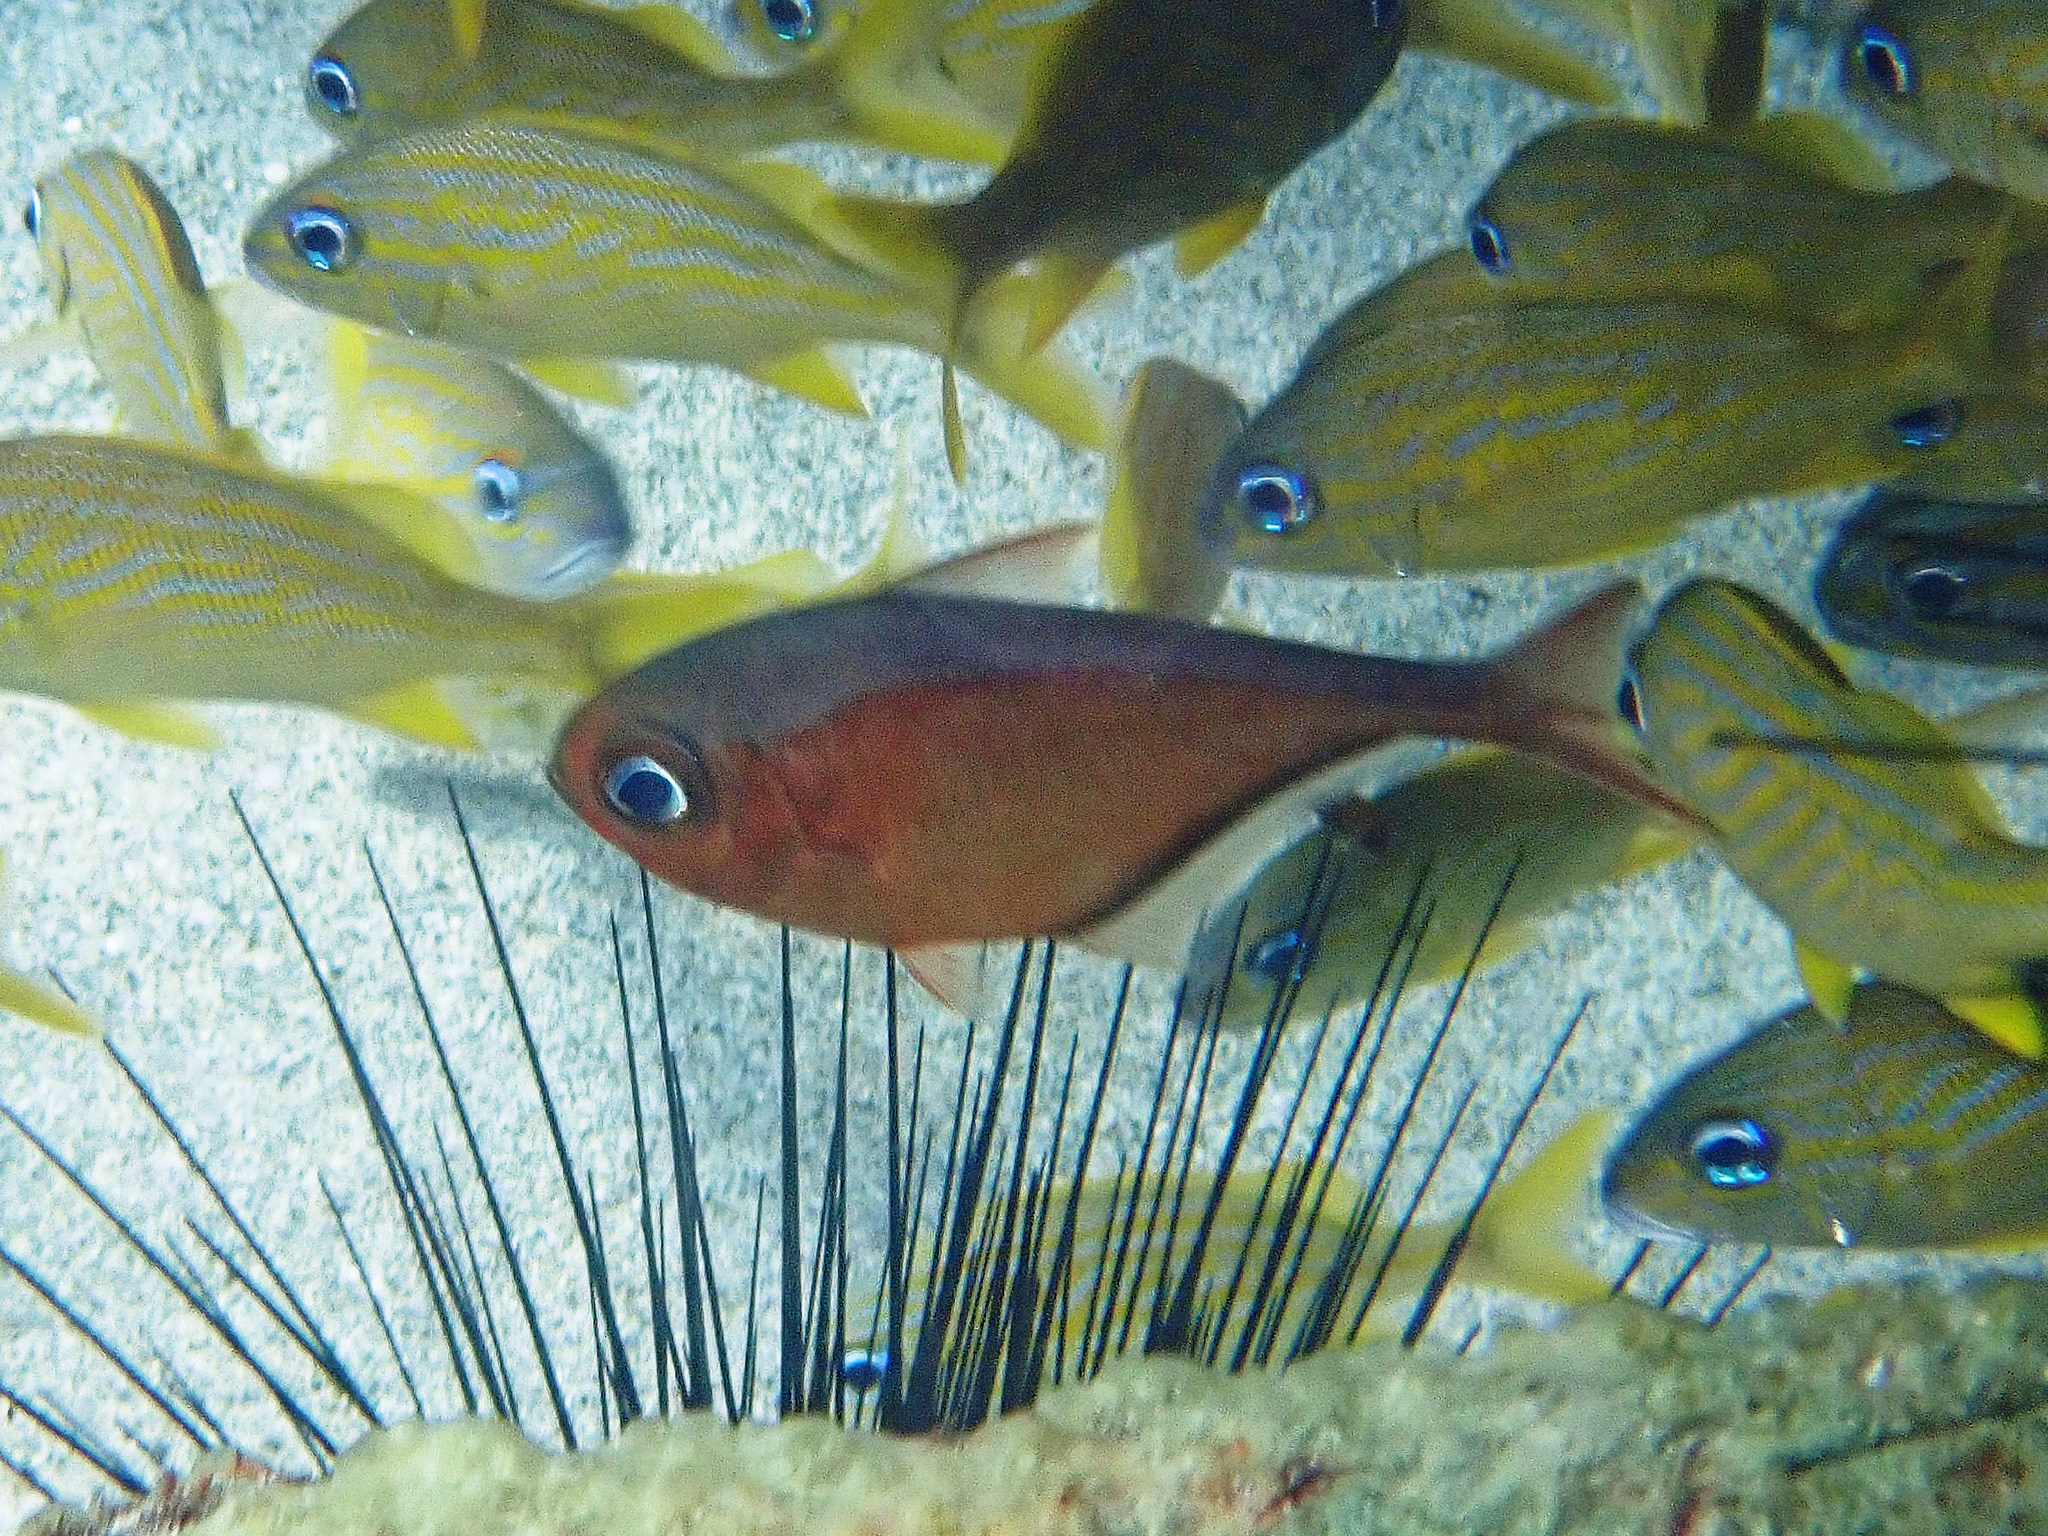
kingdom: Animalia
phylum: Chordata
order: Perciformes
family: Pempheridae
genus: Pempheris
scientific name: Pempheris schomburgkii
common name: Glassy sweeper
